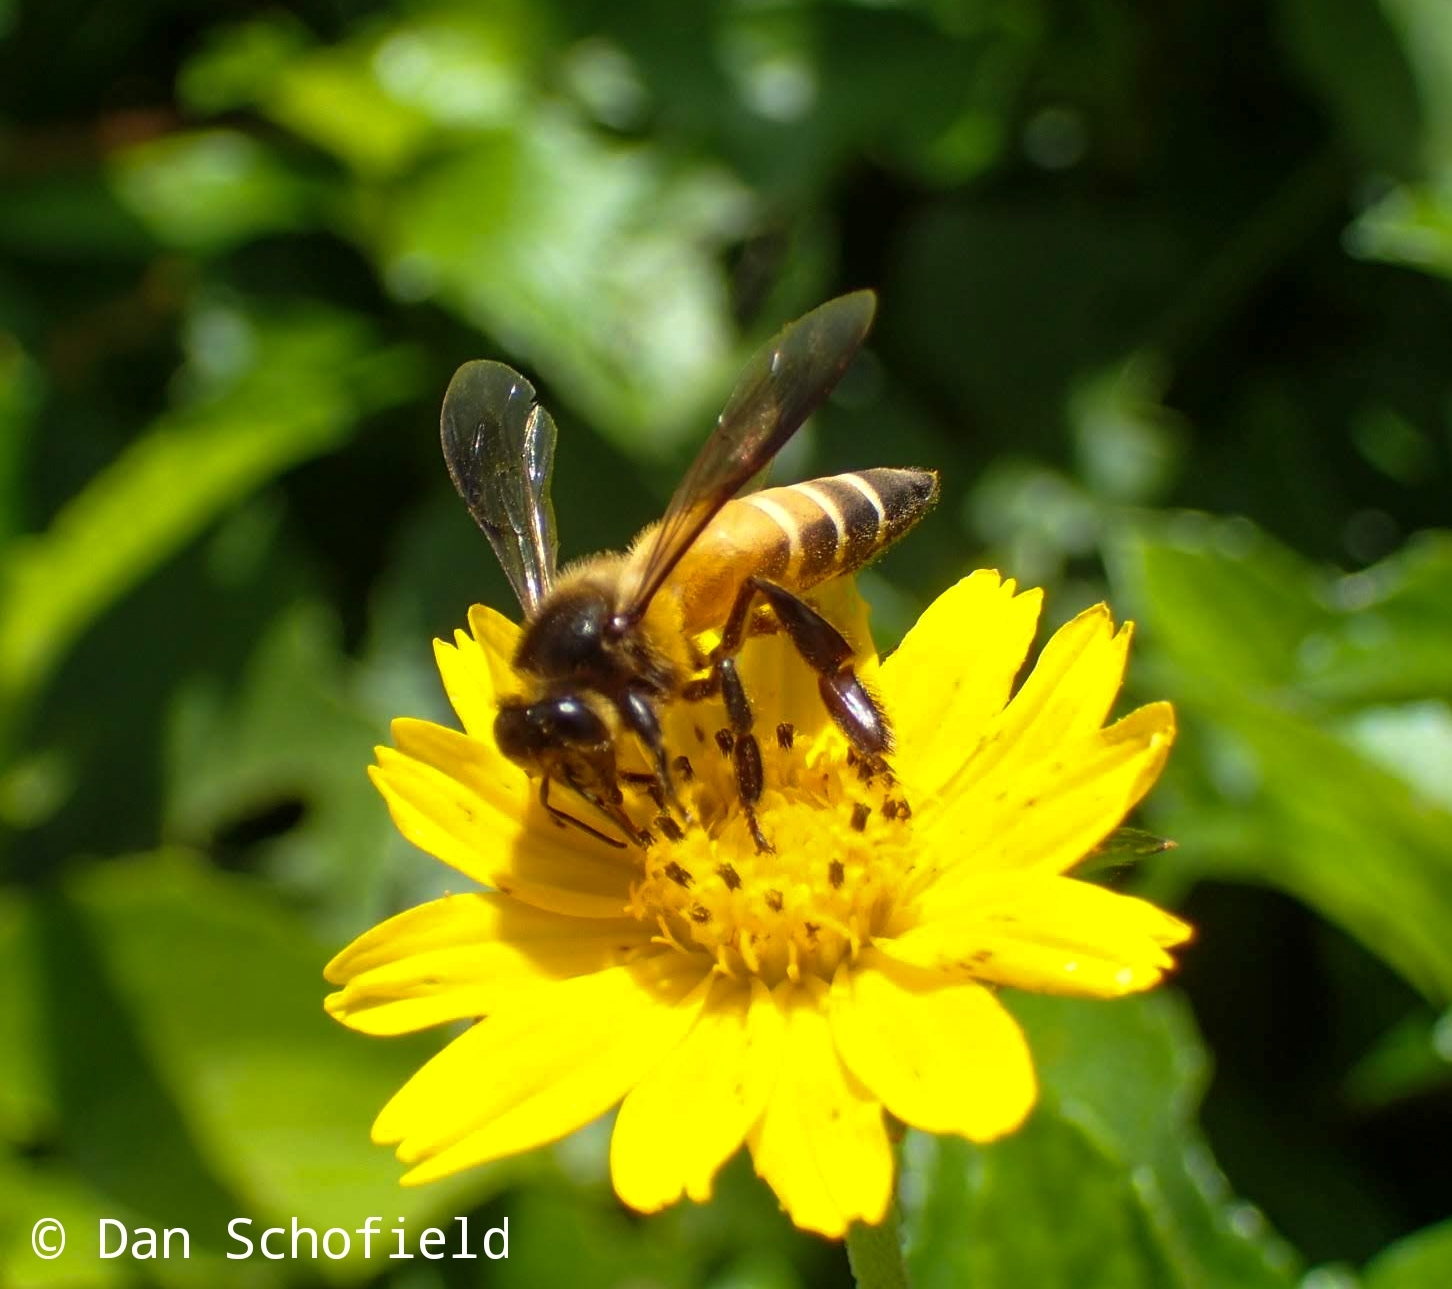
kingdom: Animalia
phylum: Arthropoda
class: Insecta
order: Hymenoptera
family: Apidae
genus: Apis
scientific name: Apis dorsata
